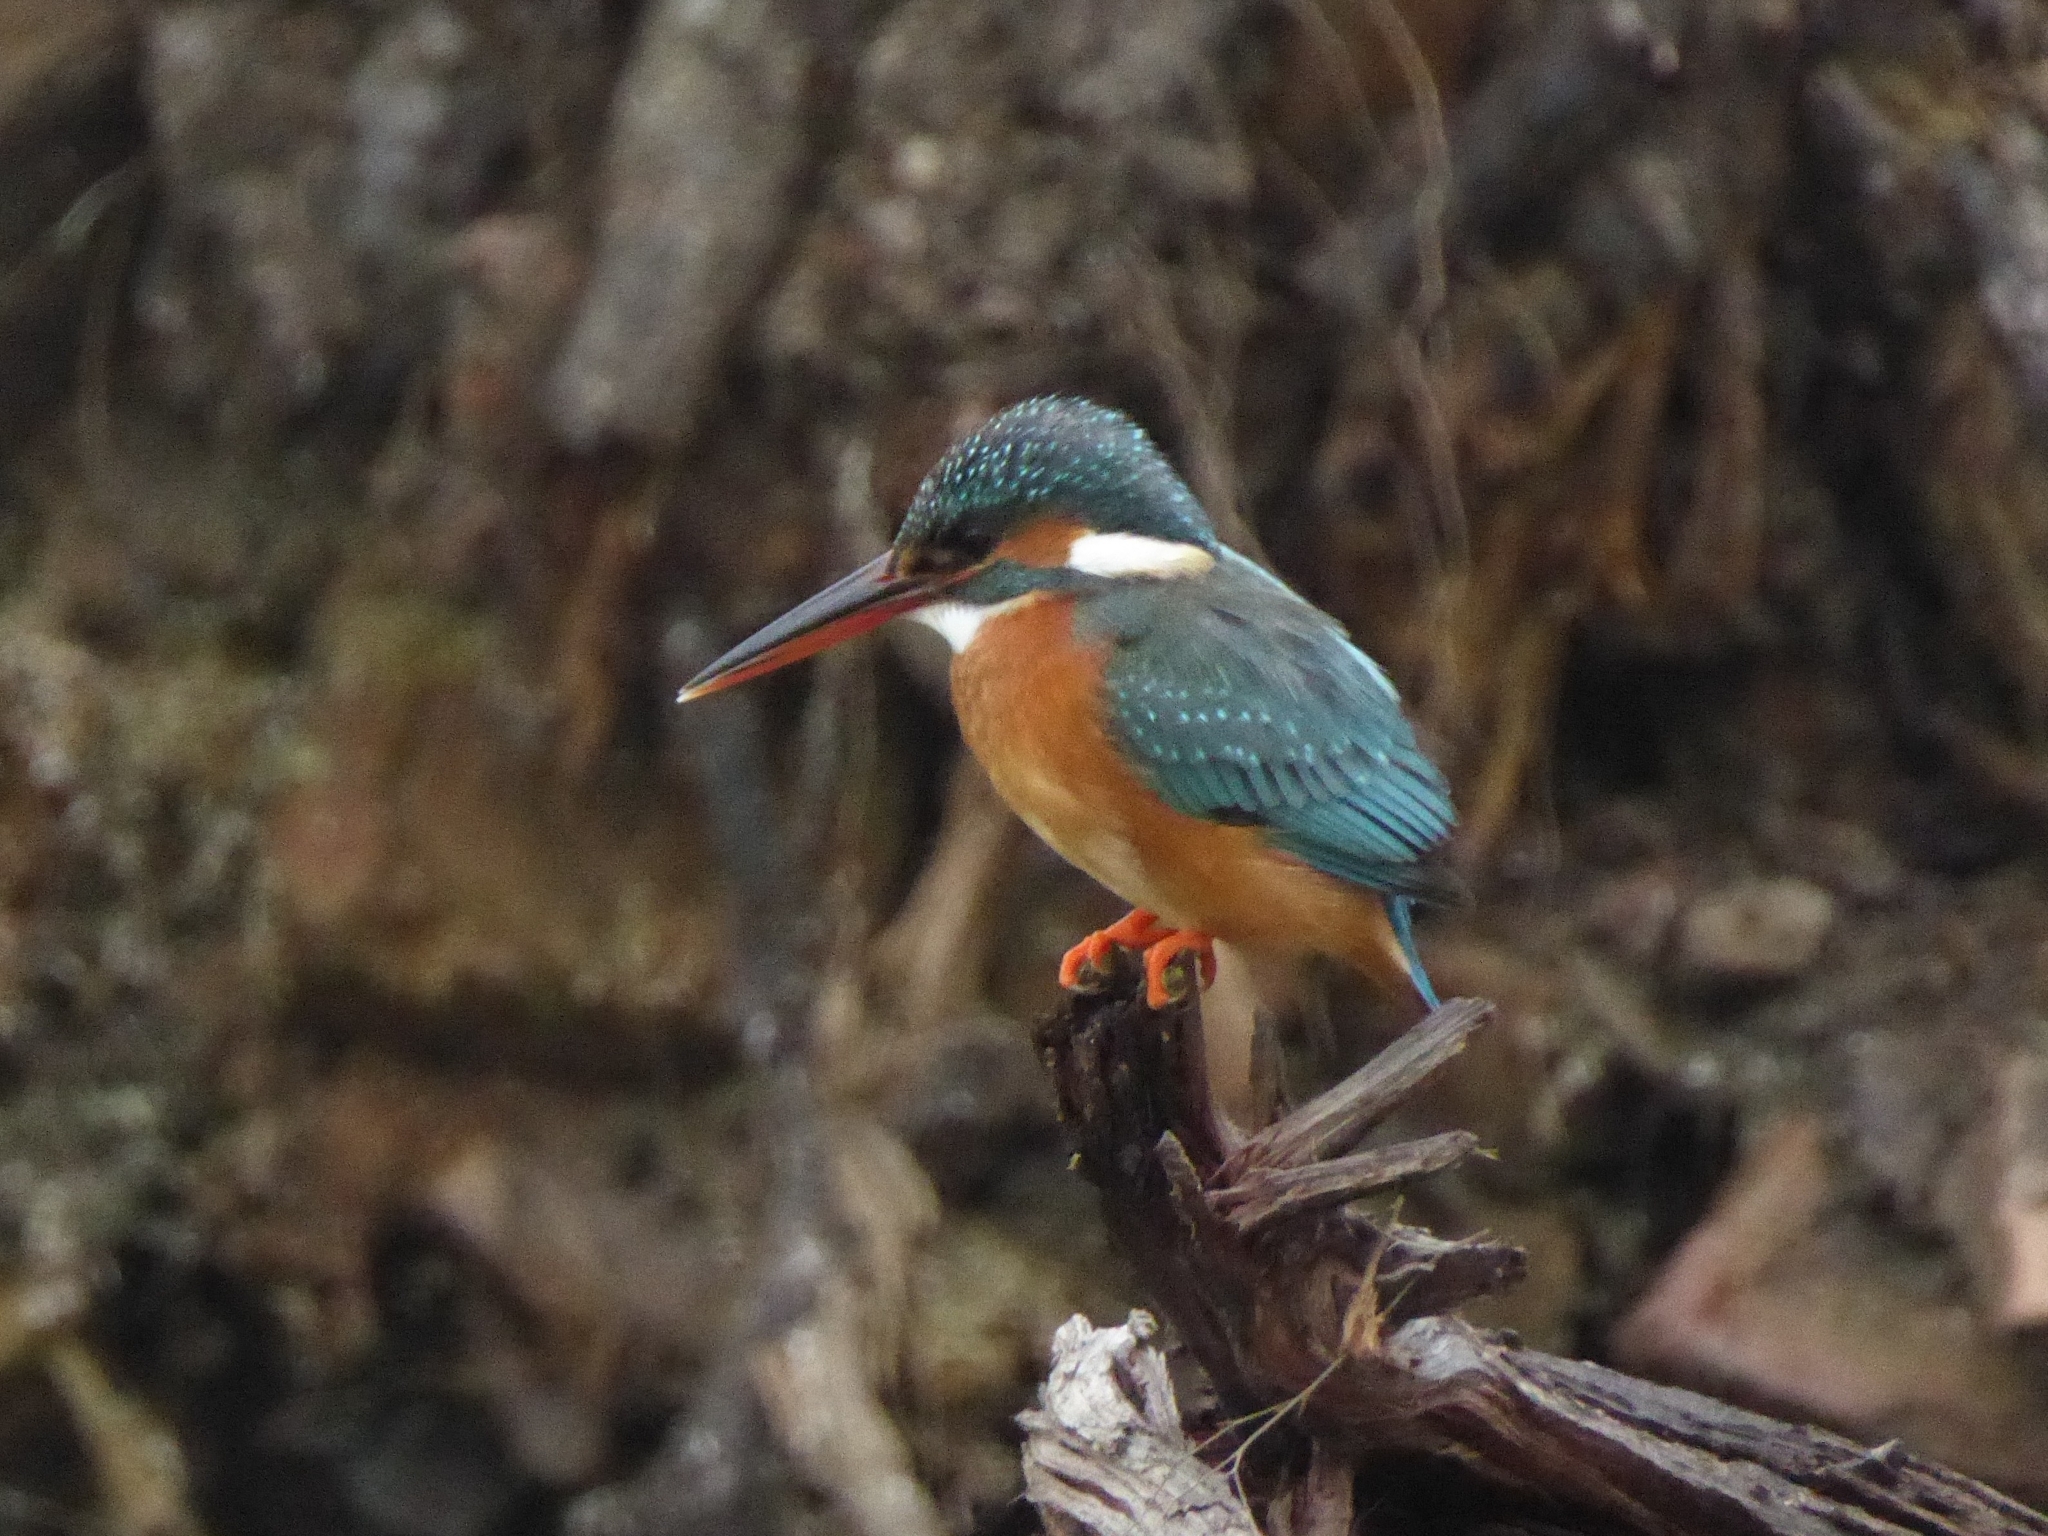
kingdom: Animalia
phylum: Chordata
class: Aves
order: Coraciiformes
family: Alcedinidae
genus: Alcedo
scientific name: Alcedo atthis
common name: Common kingfisher
